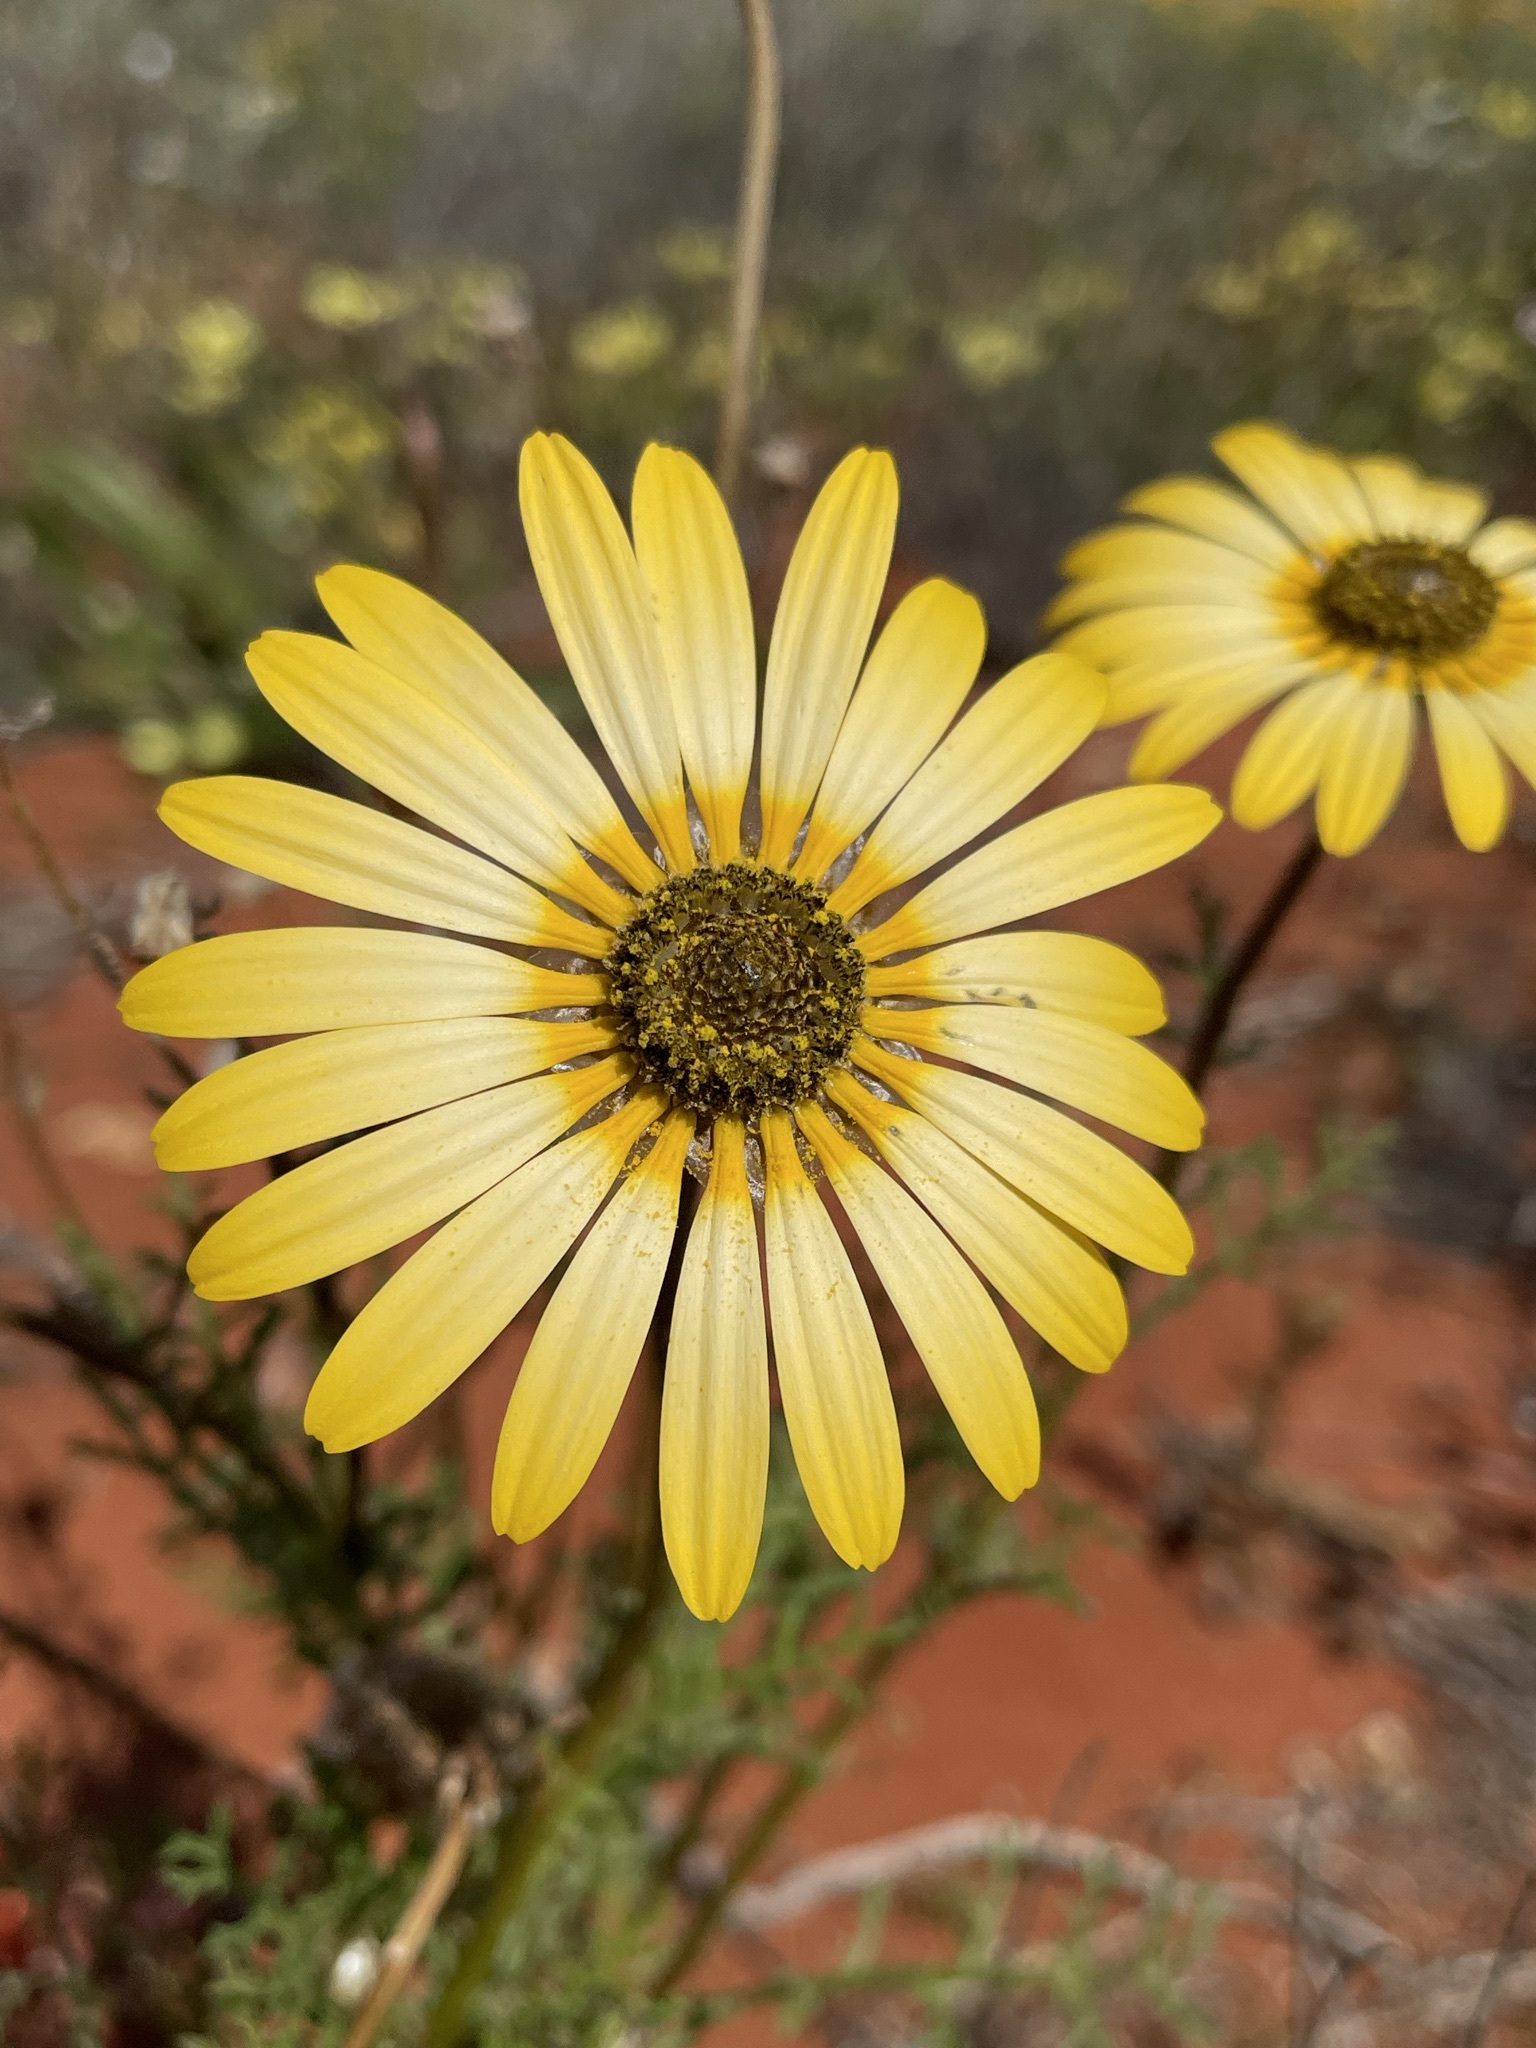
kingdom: Plantae
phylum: Tracheophyta
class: Magnoliopsida
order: Asterales
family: Asteraceae
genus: Ursinia
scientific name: Ursinia speciosa
